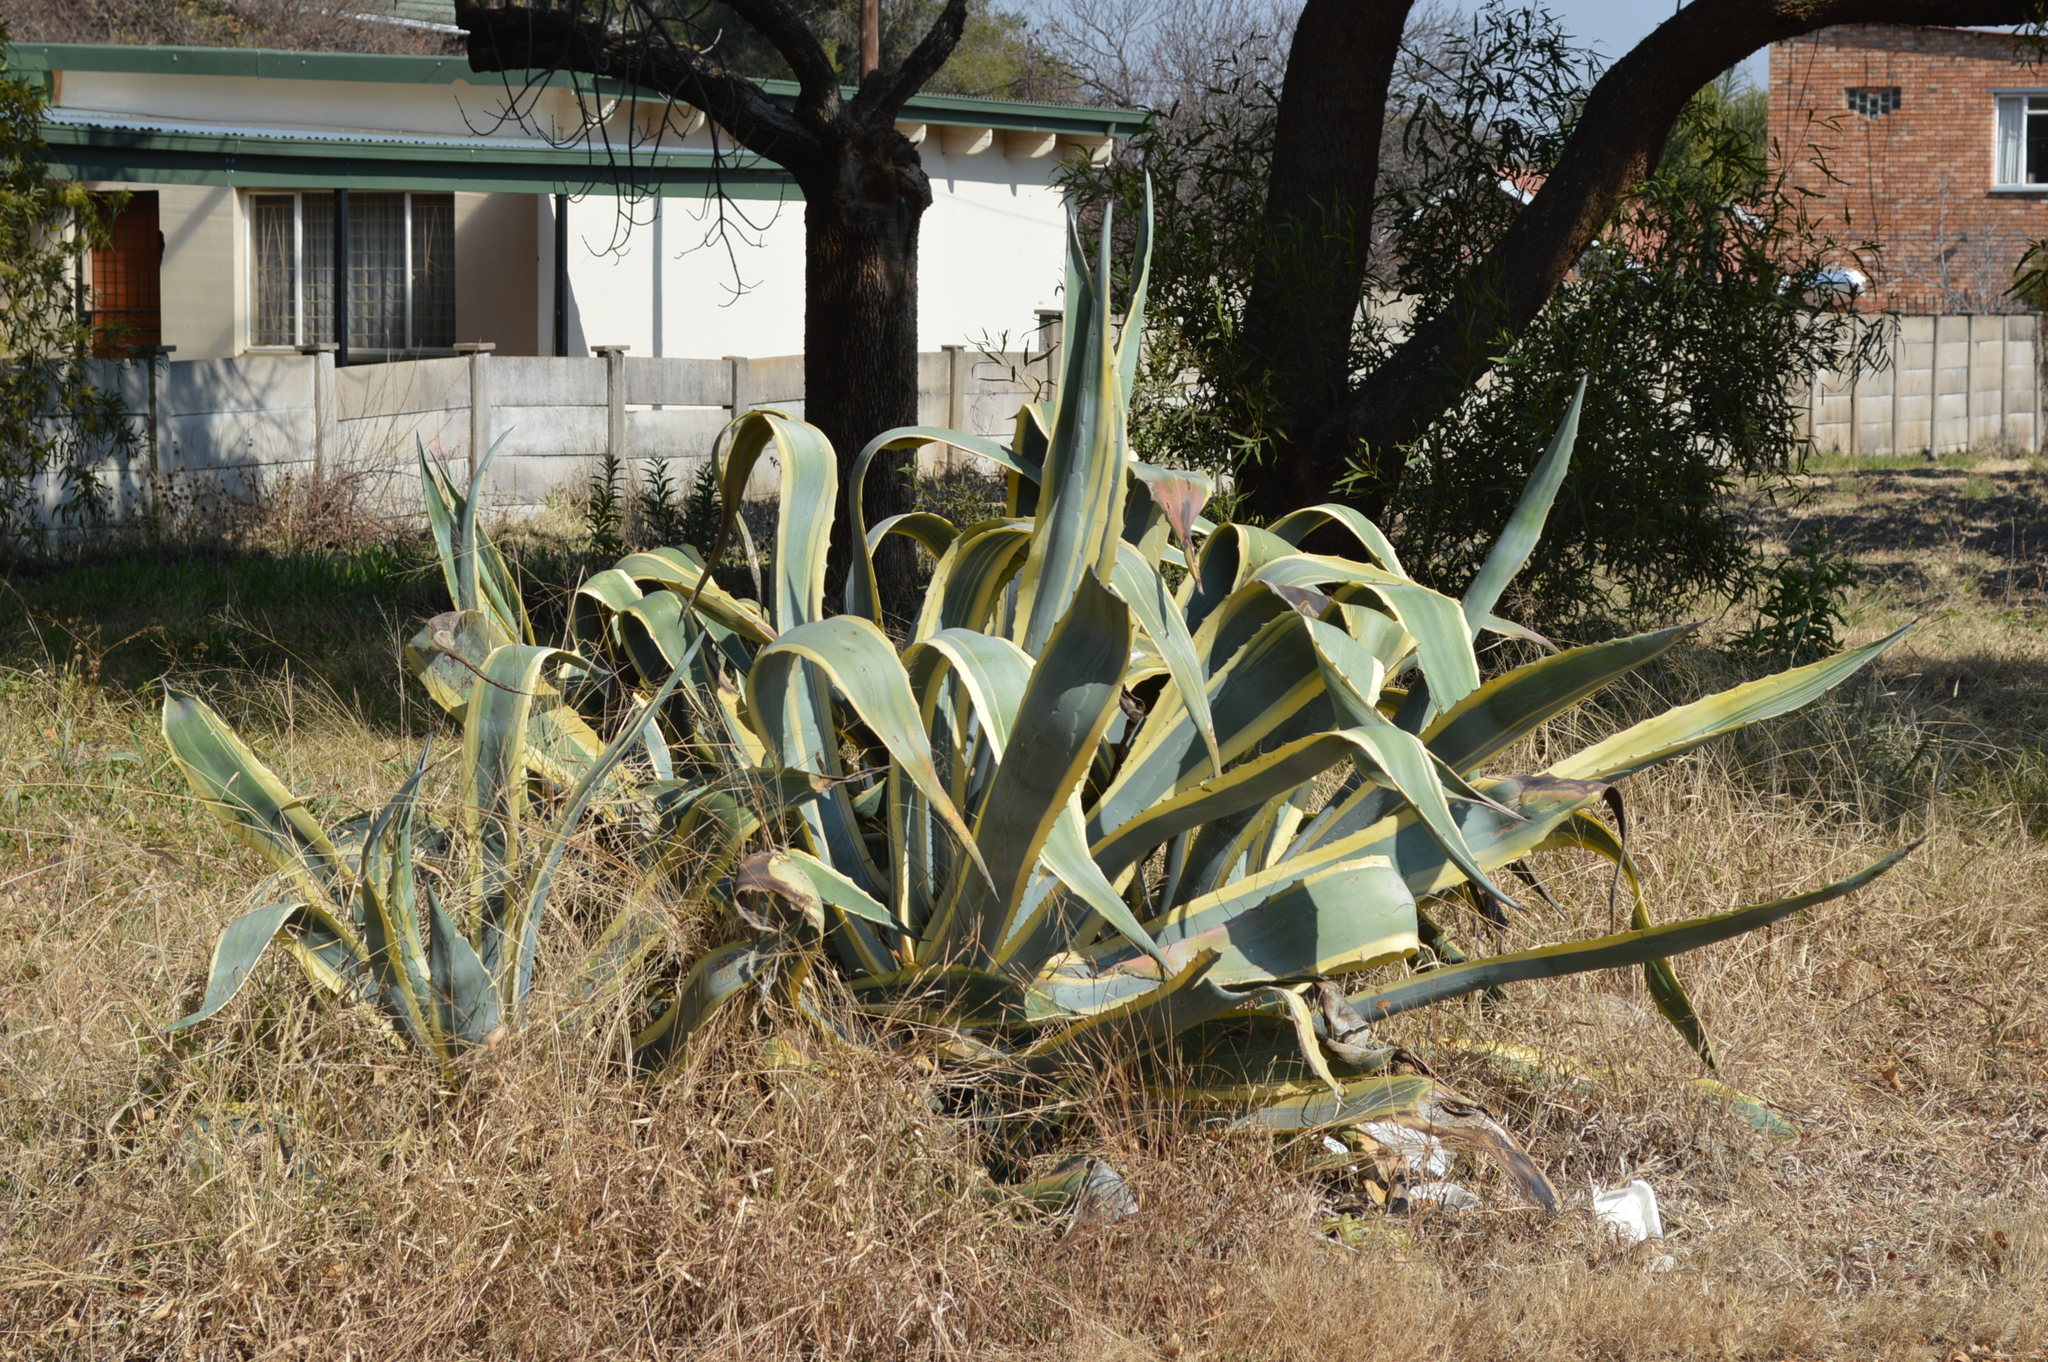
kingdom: Plantae
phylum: Tracheophyta
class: Liliopsida
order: Asparagales
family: Asparagaceae
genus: Agave
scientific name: Agave americana
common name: Centuryplant
